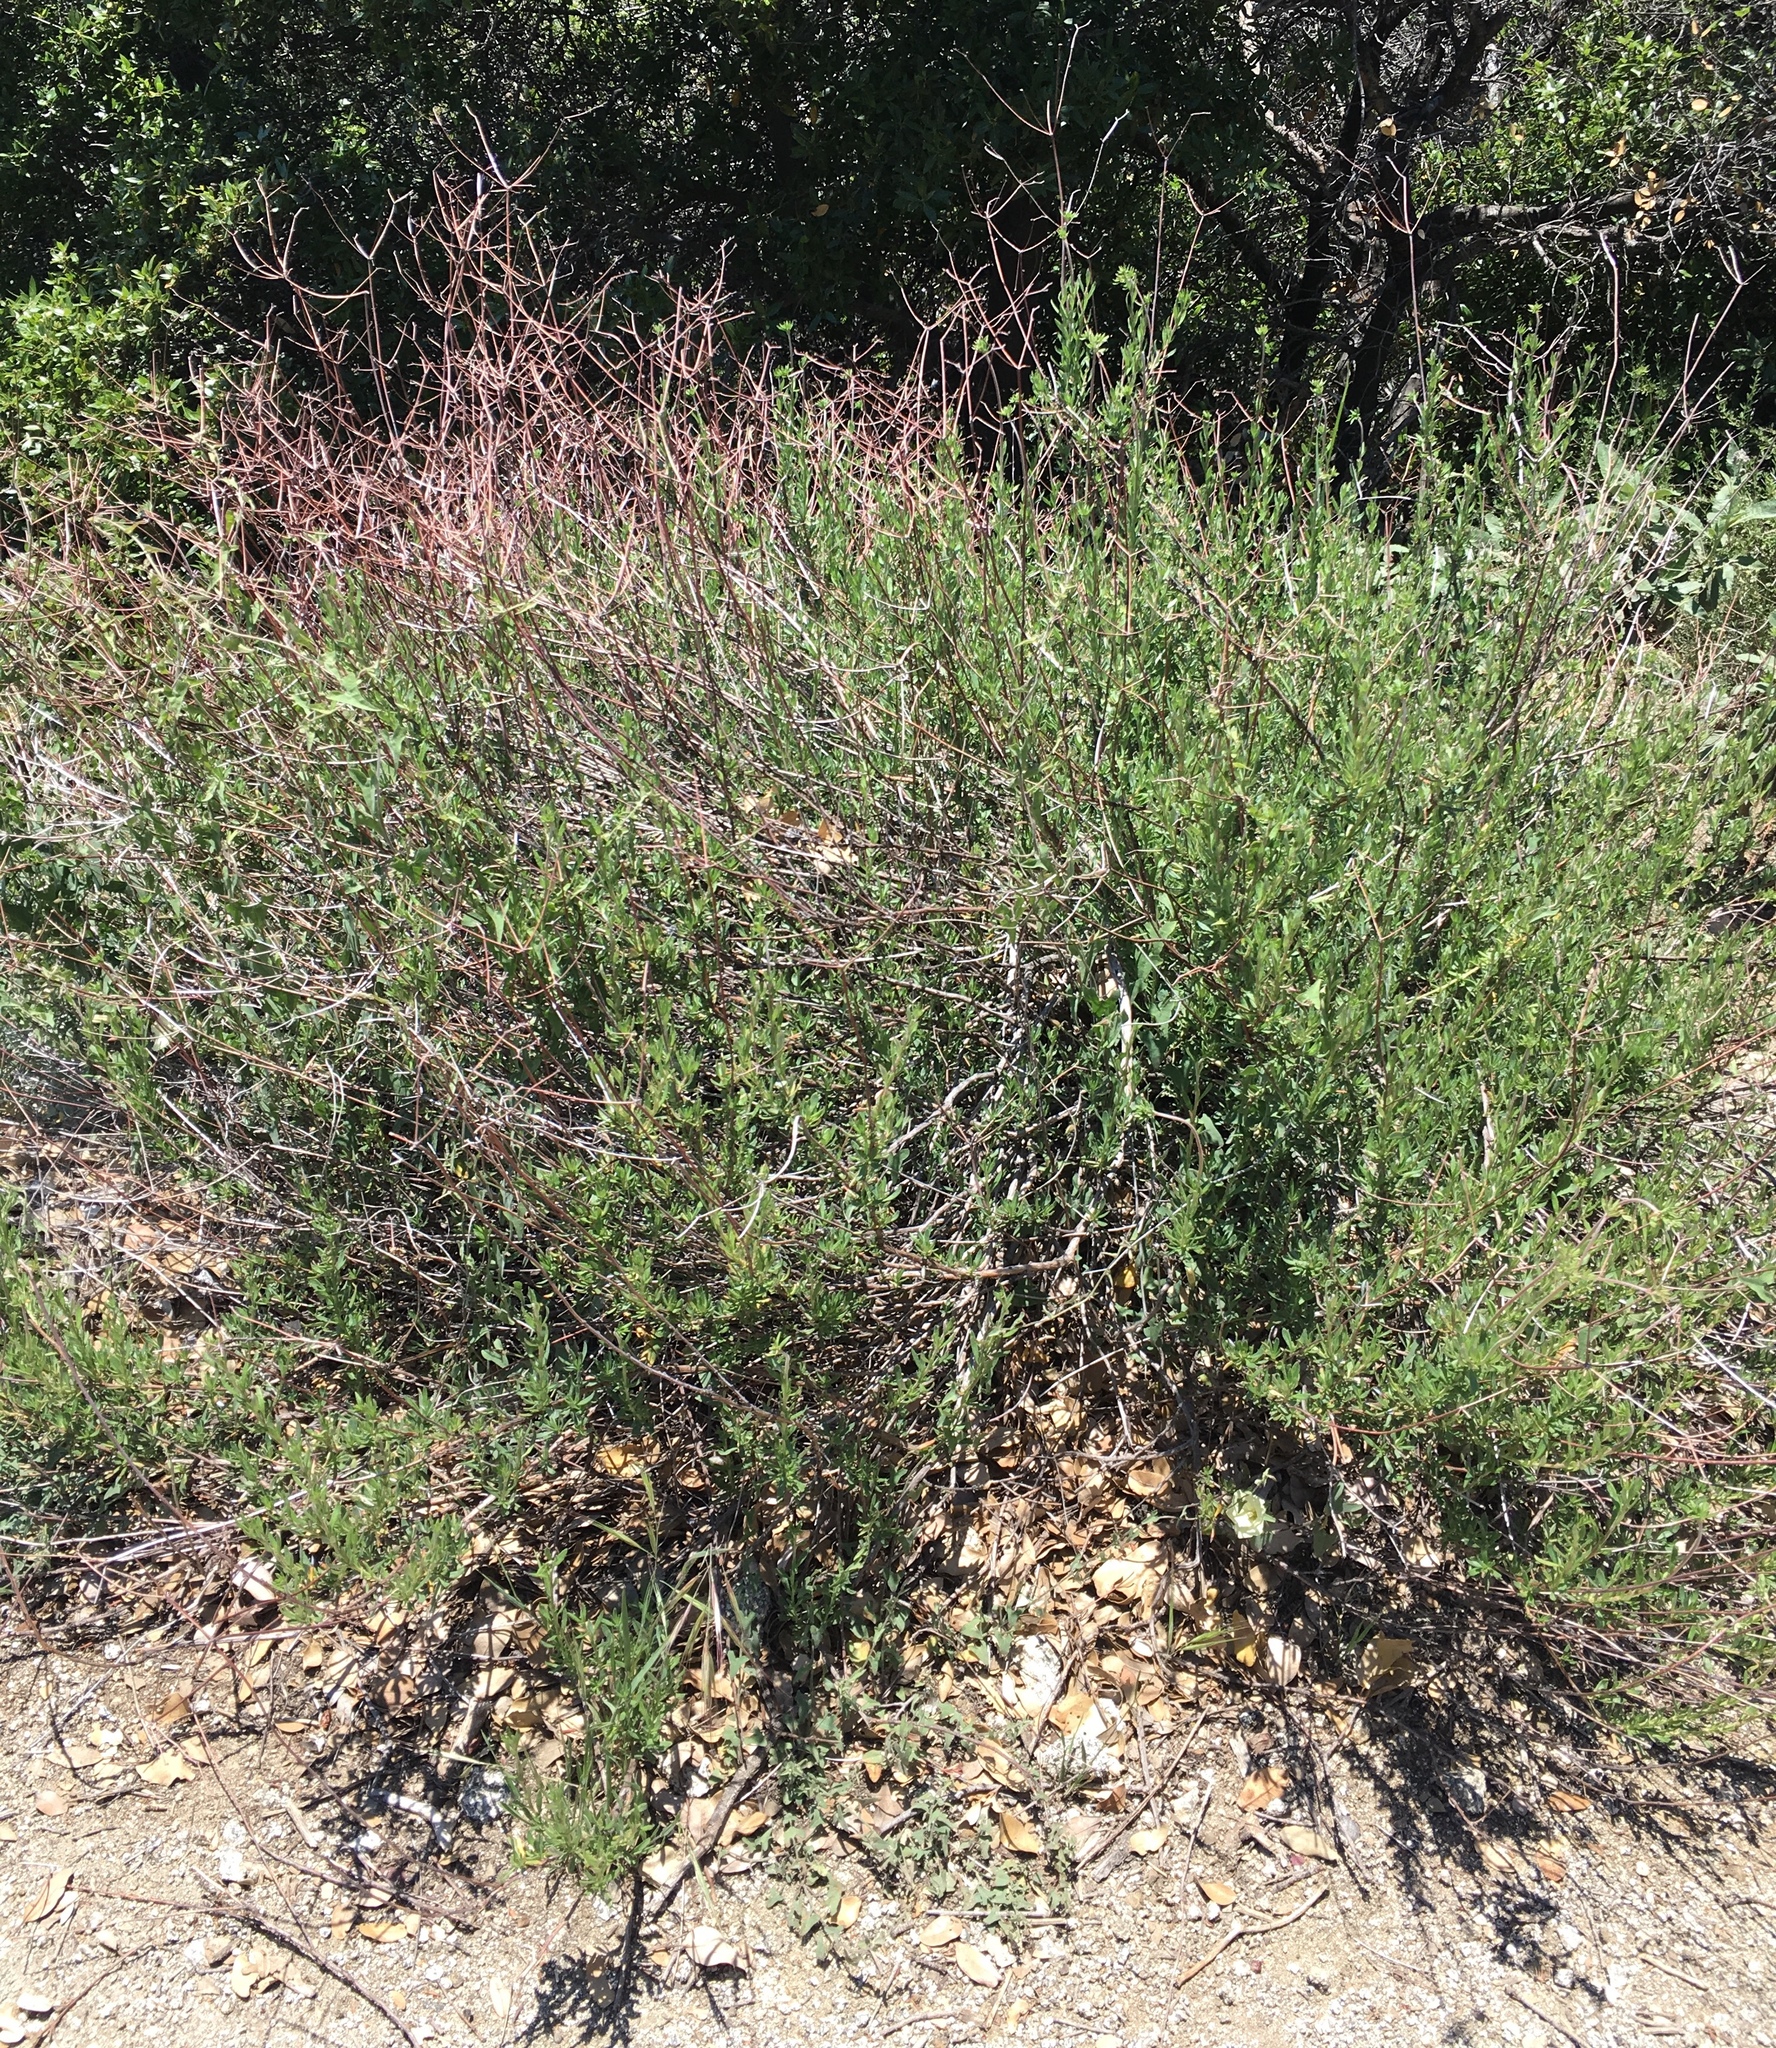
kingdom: Plantae
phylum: Tracheophyta
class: Magnoliopsida
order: Caryophyllales
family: Polygonaceae
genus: Eriogonum
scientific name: Eriogonum fasciculatum
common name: California wild buckwheat
